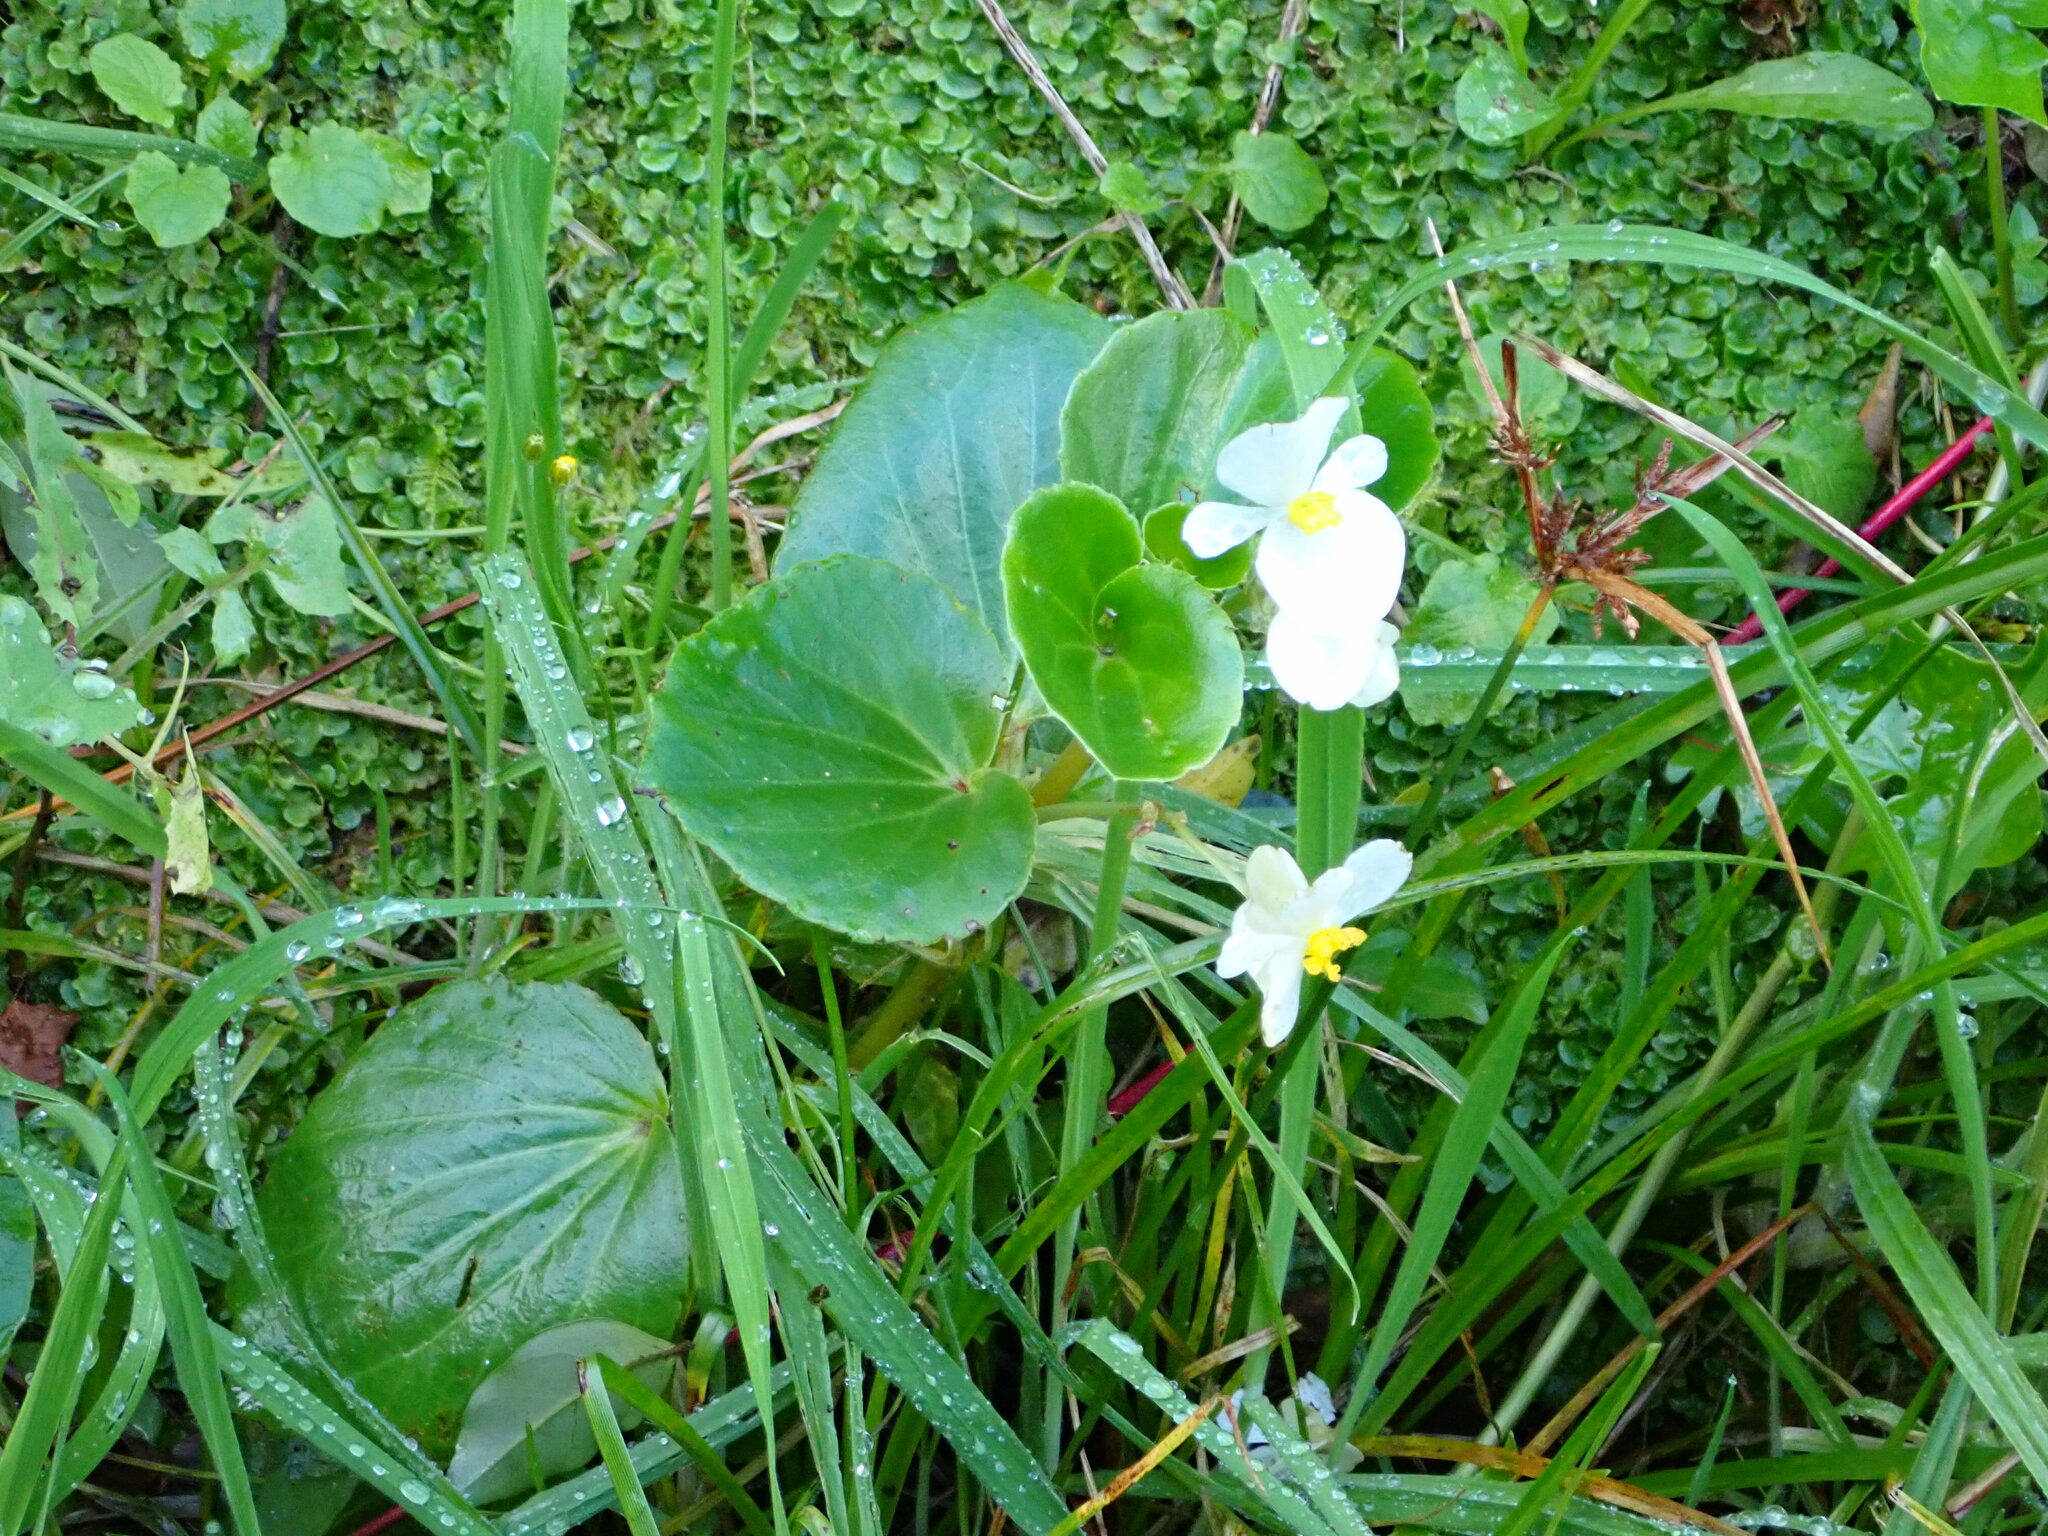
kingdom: Plantae
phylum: Tracheophyta
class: Magnoliopsida
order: Cucurbitales
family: Begoniaceae
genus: Begonia
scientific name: Begonia semperflorens-cultorum
